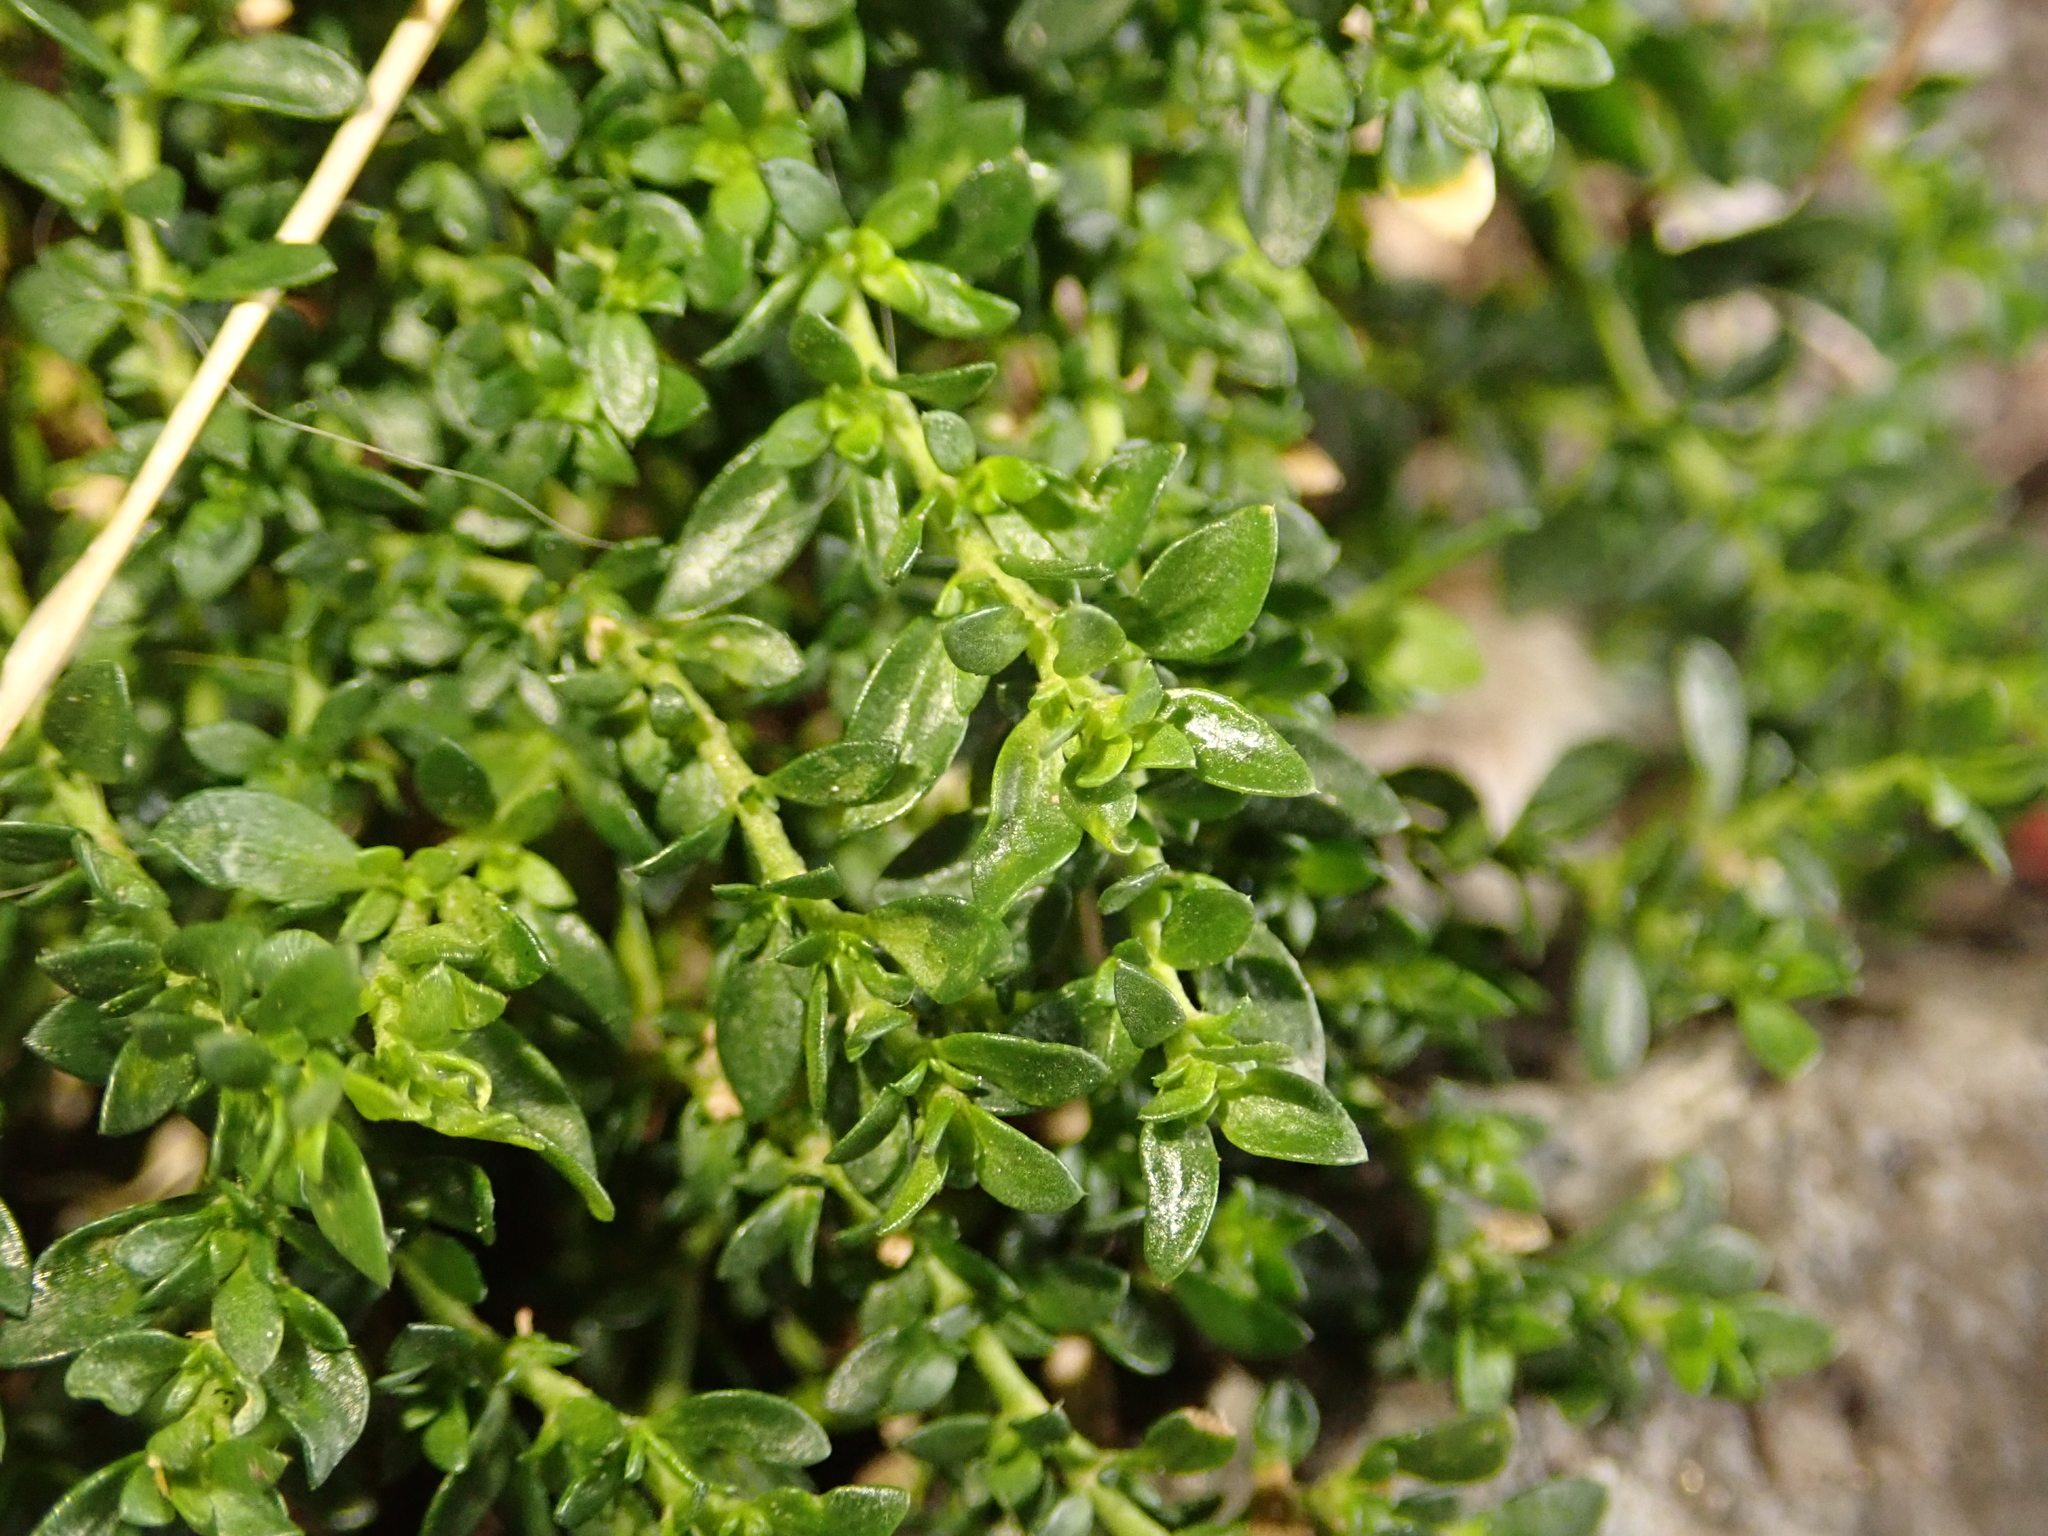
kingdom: Plantae
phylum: Tracheophyta
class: Magnoliopsida
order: Caryophyllales
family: Caryophyllaceae
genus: Herniaria
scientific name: Herniaria glabra
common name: Smooth rupturewort
